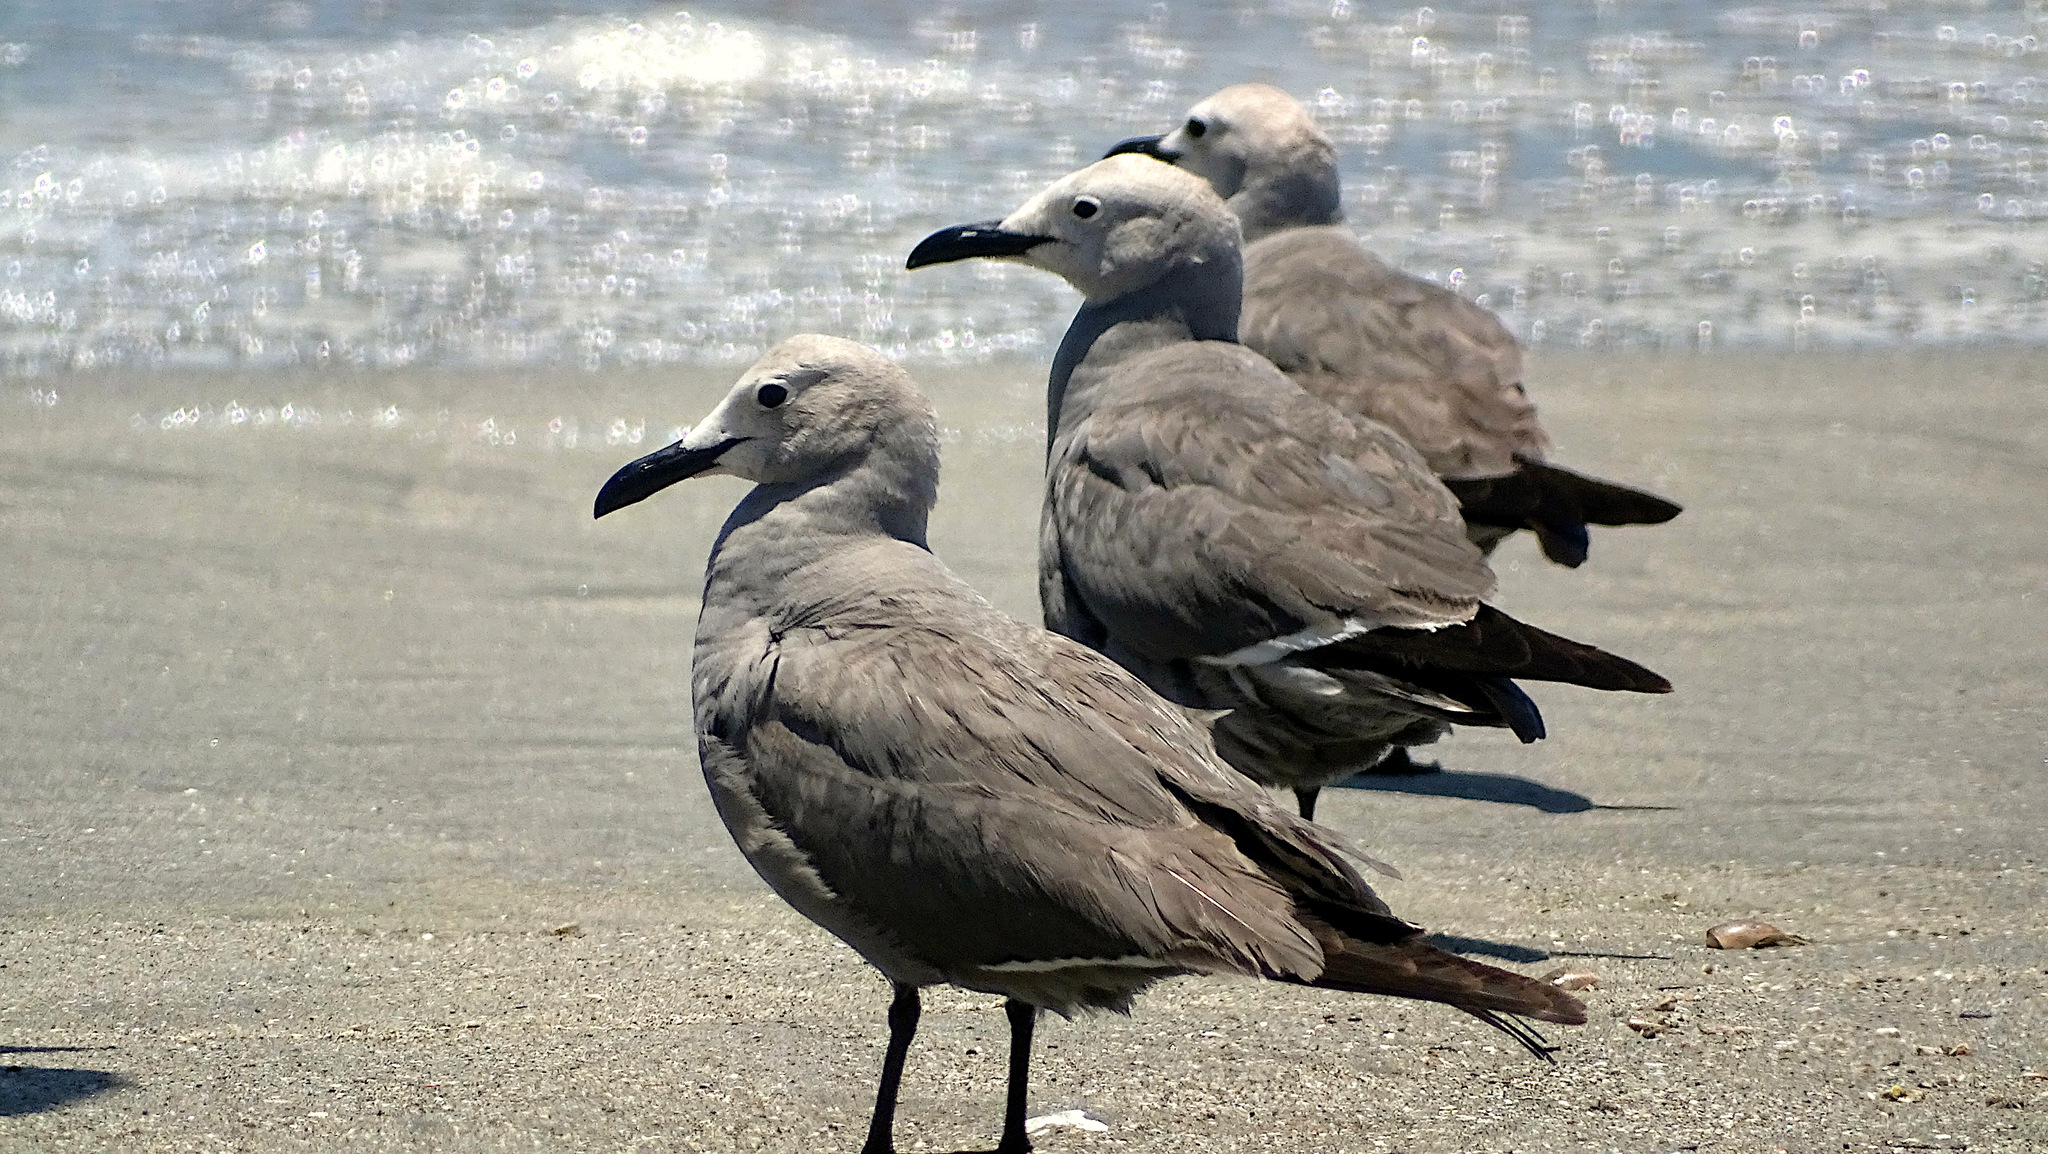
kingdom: Animalia
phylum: Chordata
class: Aves
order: Charadriiformes
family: Laridae
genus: Leucophaeus
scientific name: Leucophaeus modestus
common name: Gray gull
